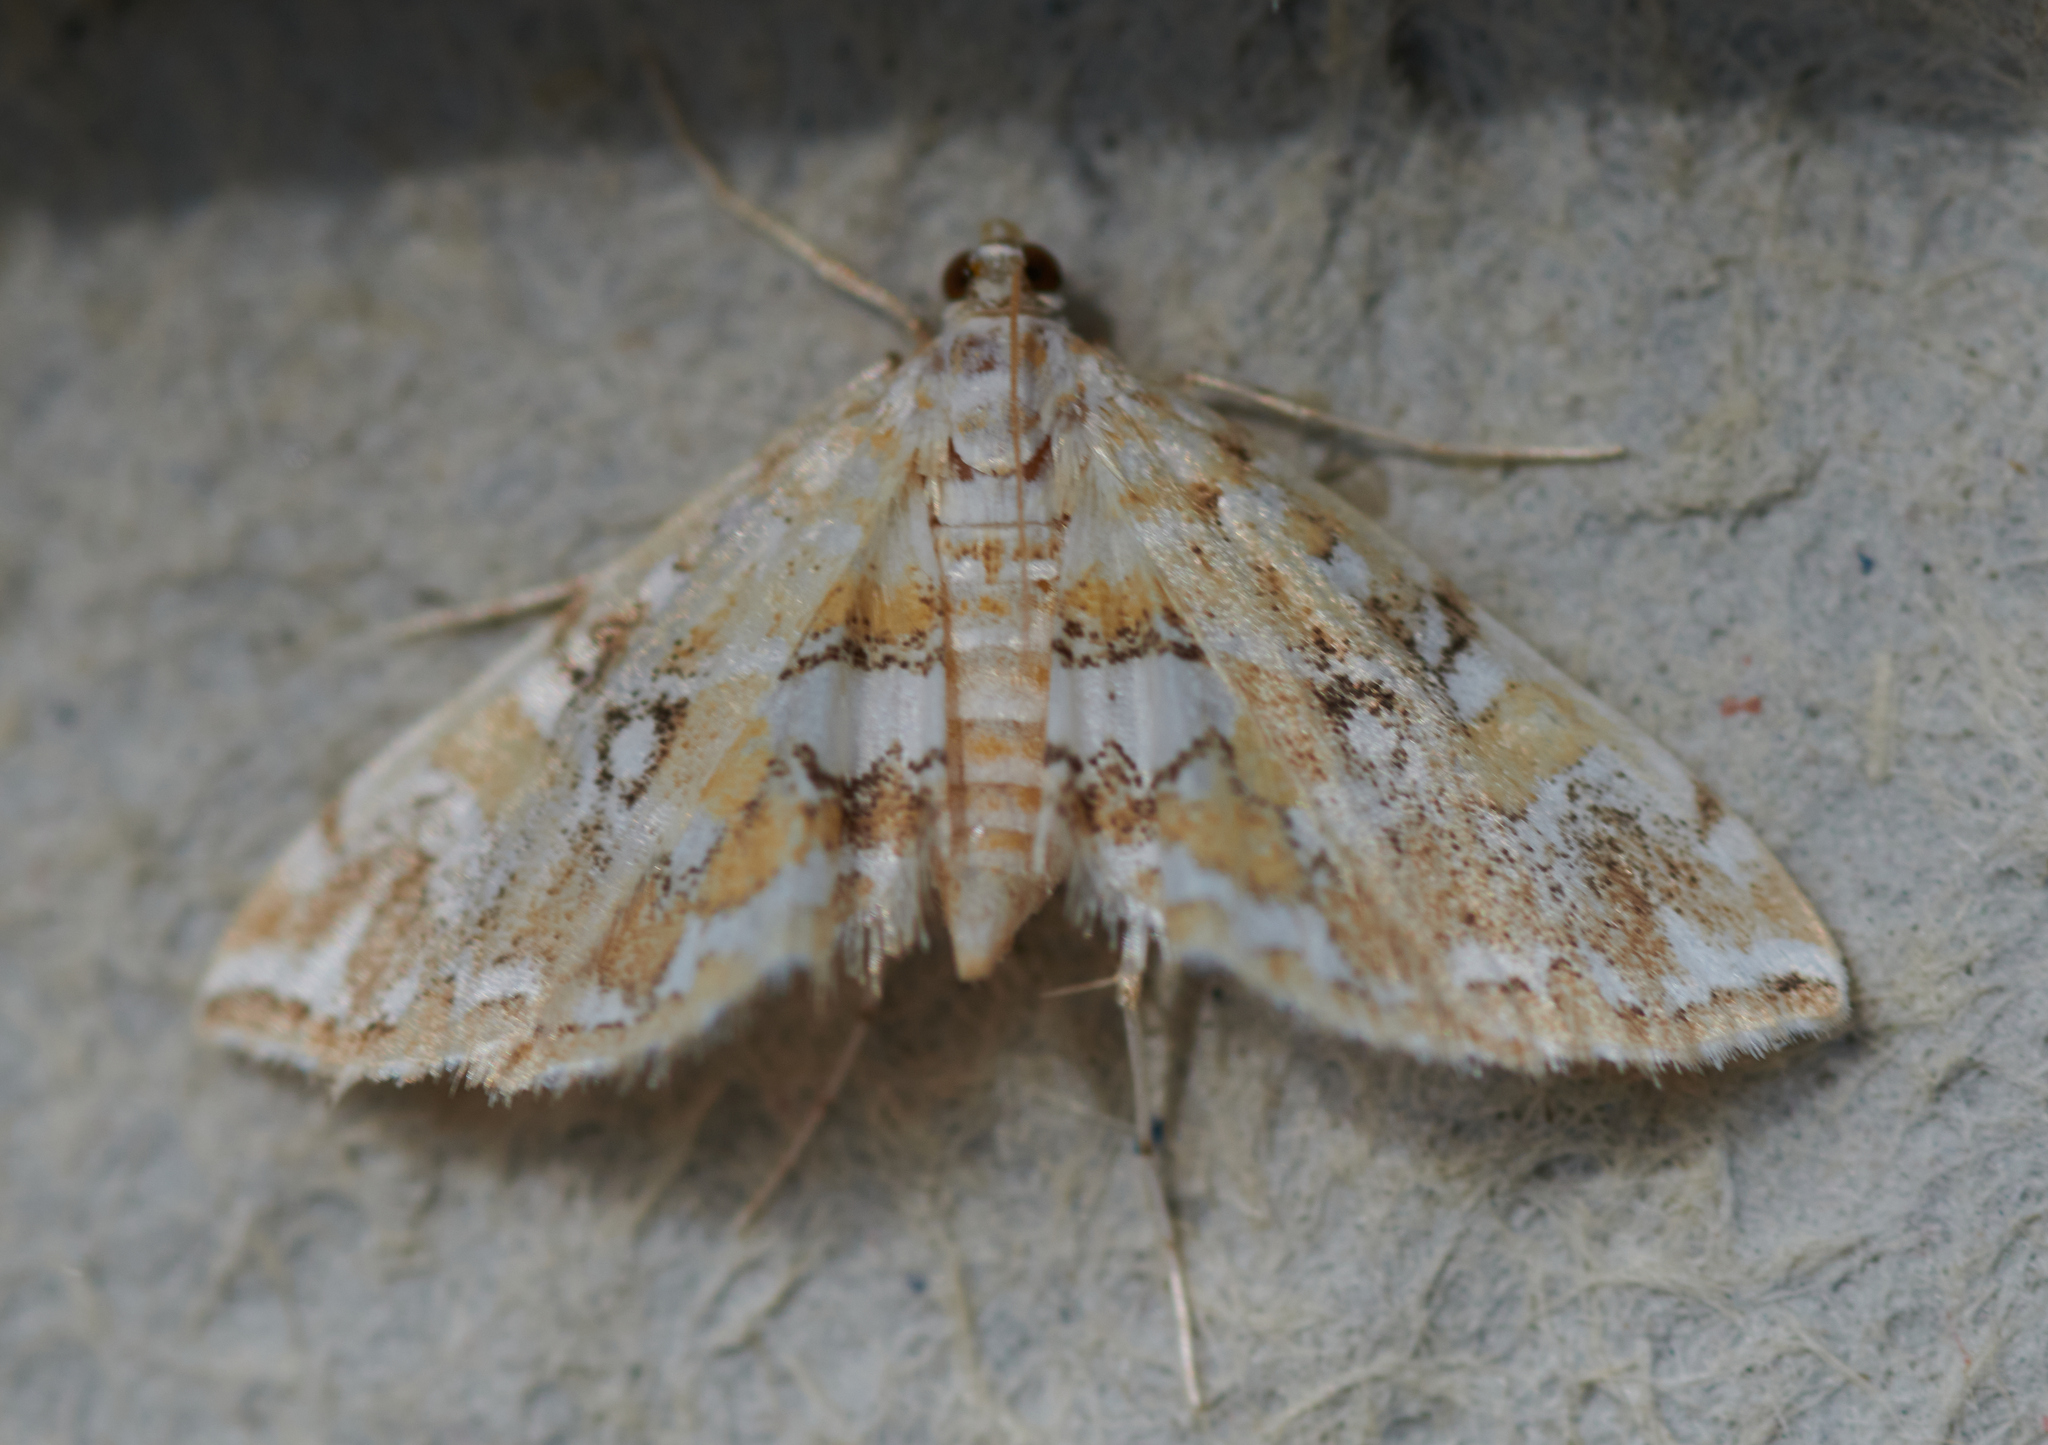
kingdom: Animalia
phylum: Arthropoda
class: Insecta
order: Lepidoptera
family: Crambidae
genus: Elophila
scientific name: Elophila icciusalis
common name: Pondside pyralid moth
